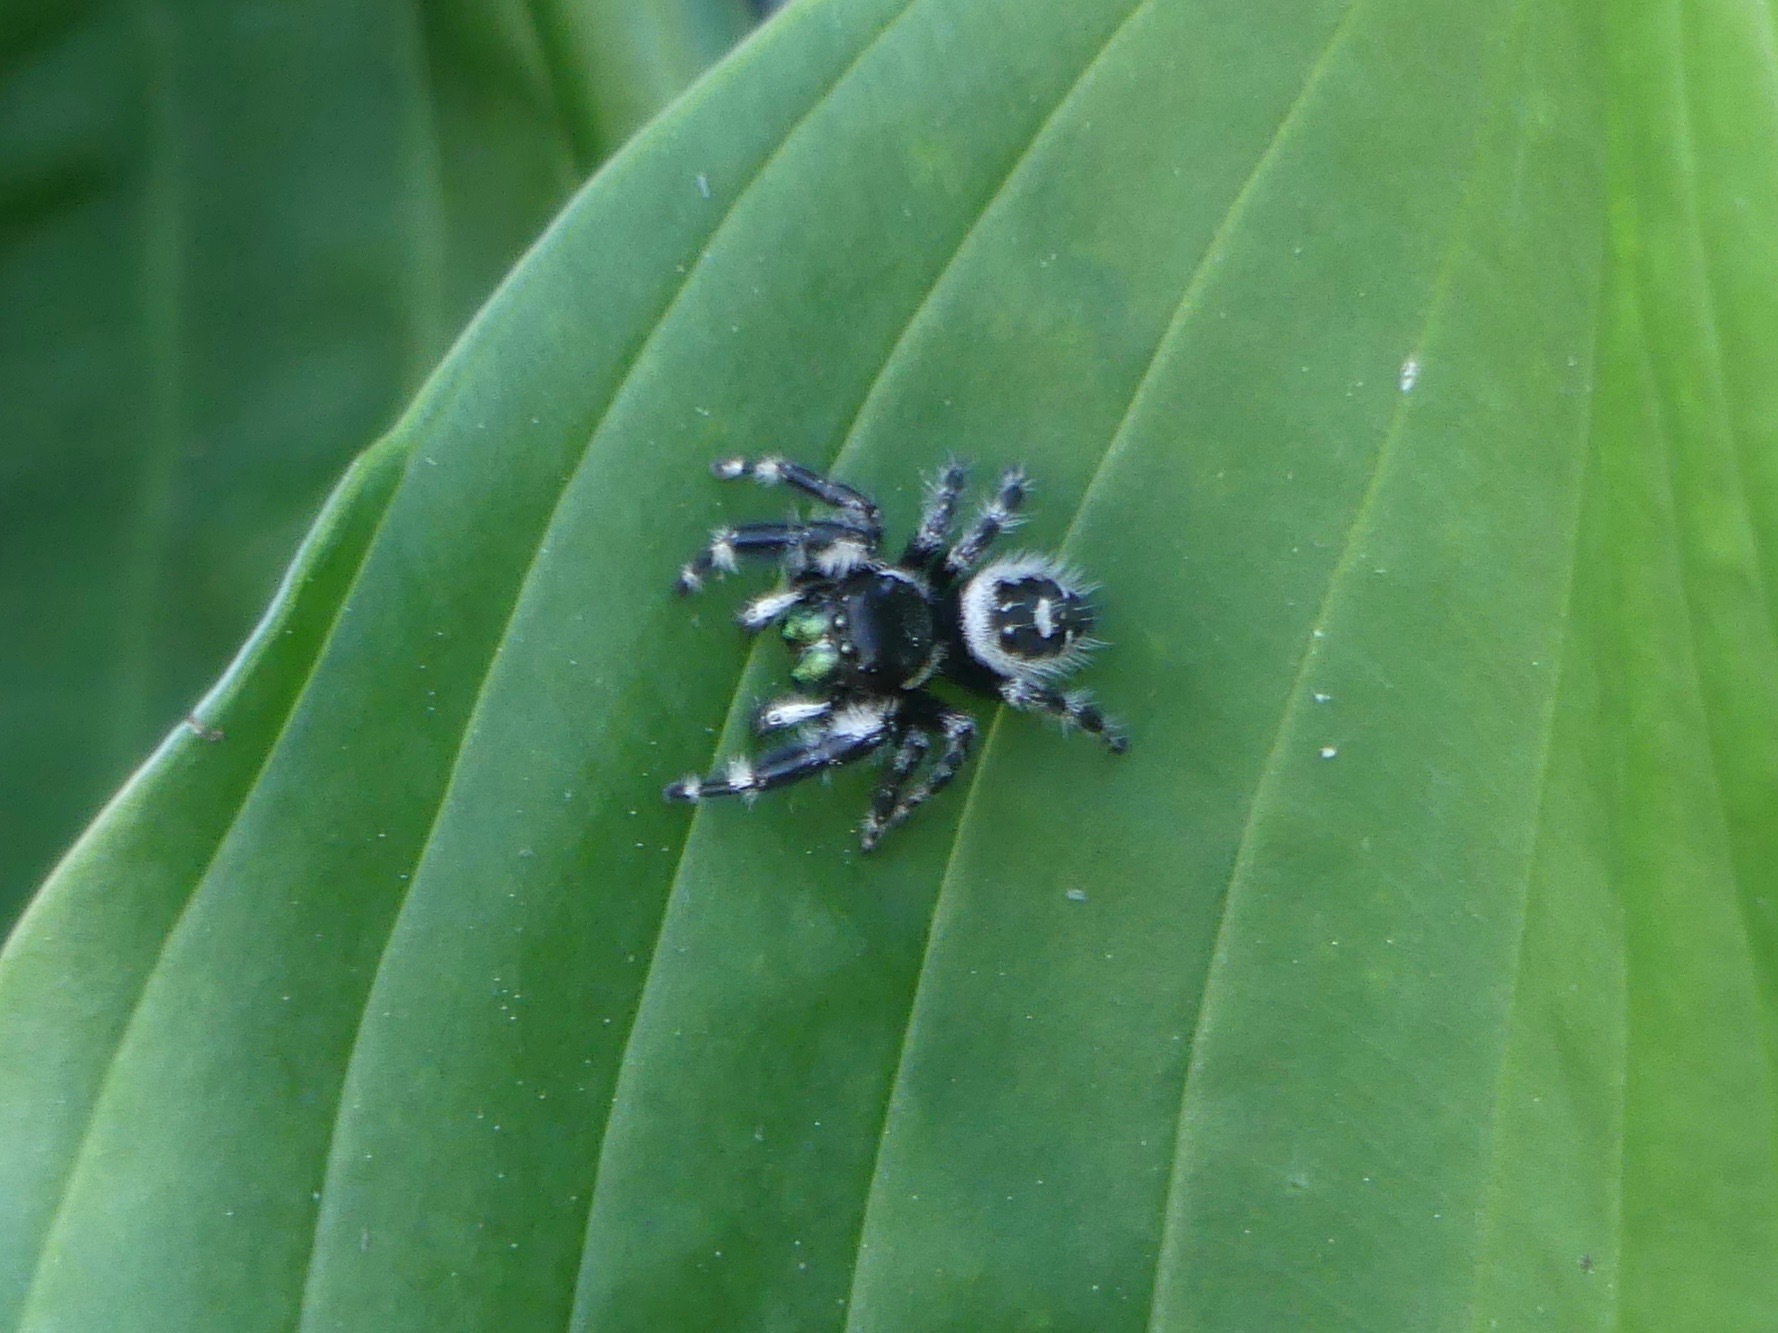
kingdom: Animalia
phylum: Arthropoda
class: Arachnida
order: Araneae
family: Salticidae
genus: Phidippus
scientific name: Phidippus audax
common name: Bold jumper
